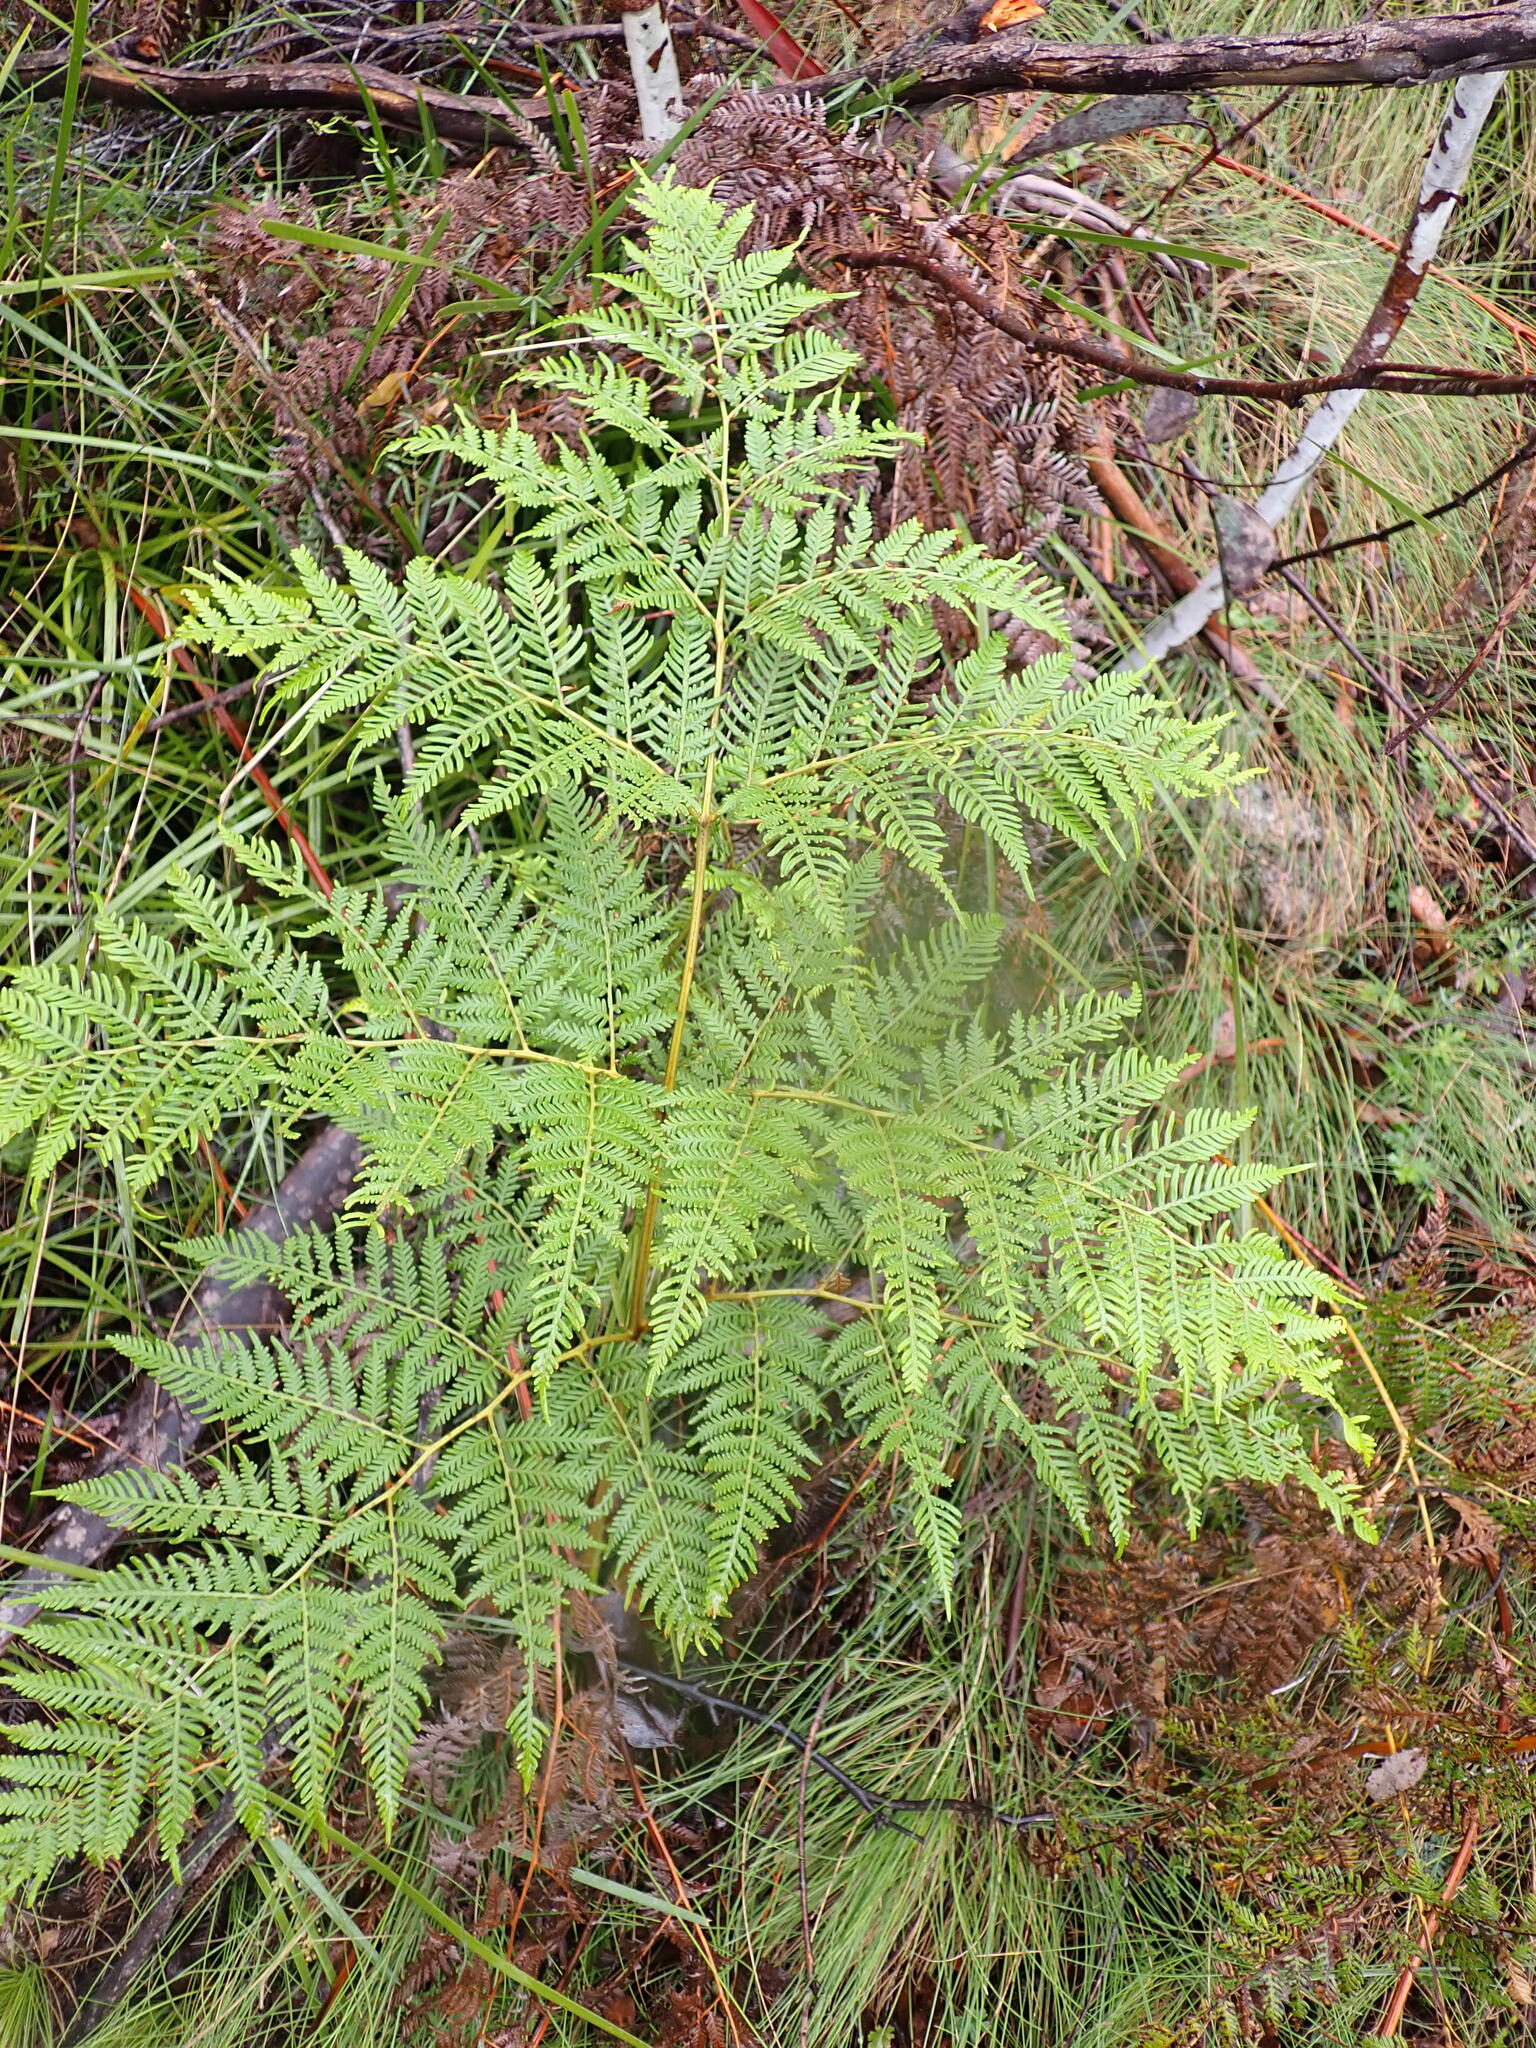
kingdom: Plantae
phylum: Tracheophyta
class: Polypodiopsida
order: Polypodiales
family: Dennstaedtiaceae
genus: Pteridium
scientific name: Pteridium esculentum
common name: Bracken fern
